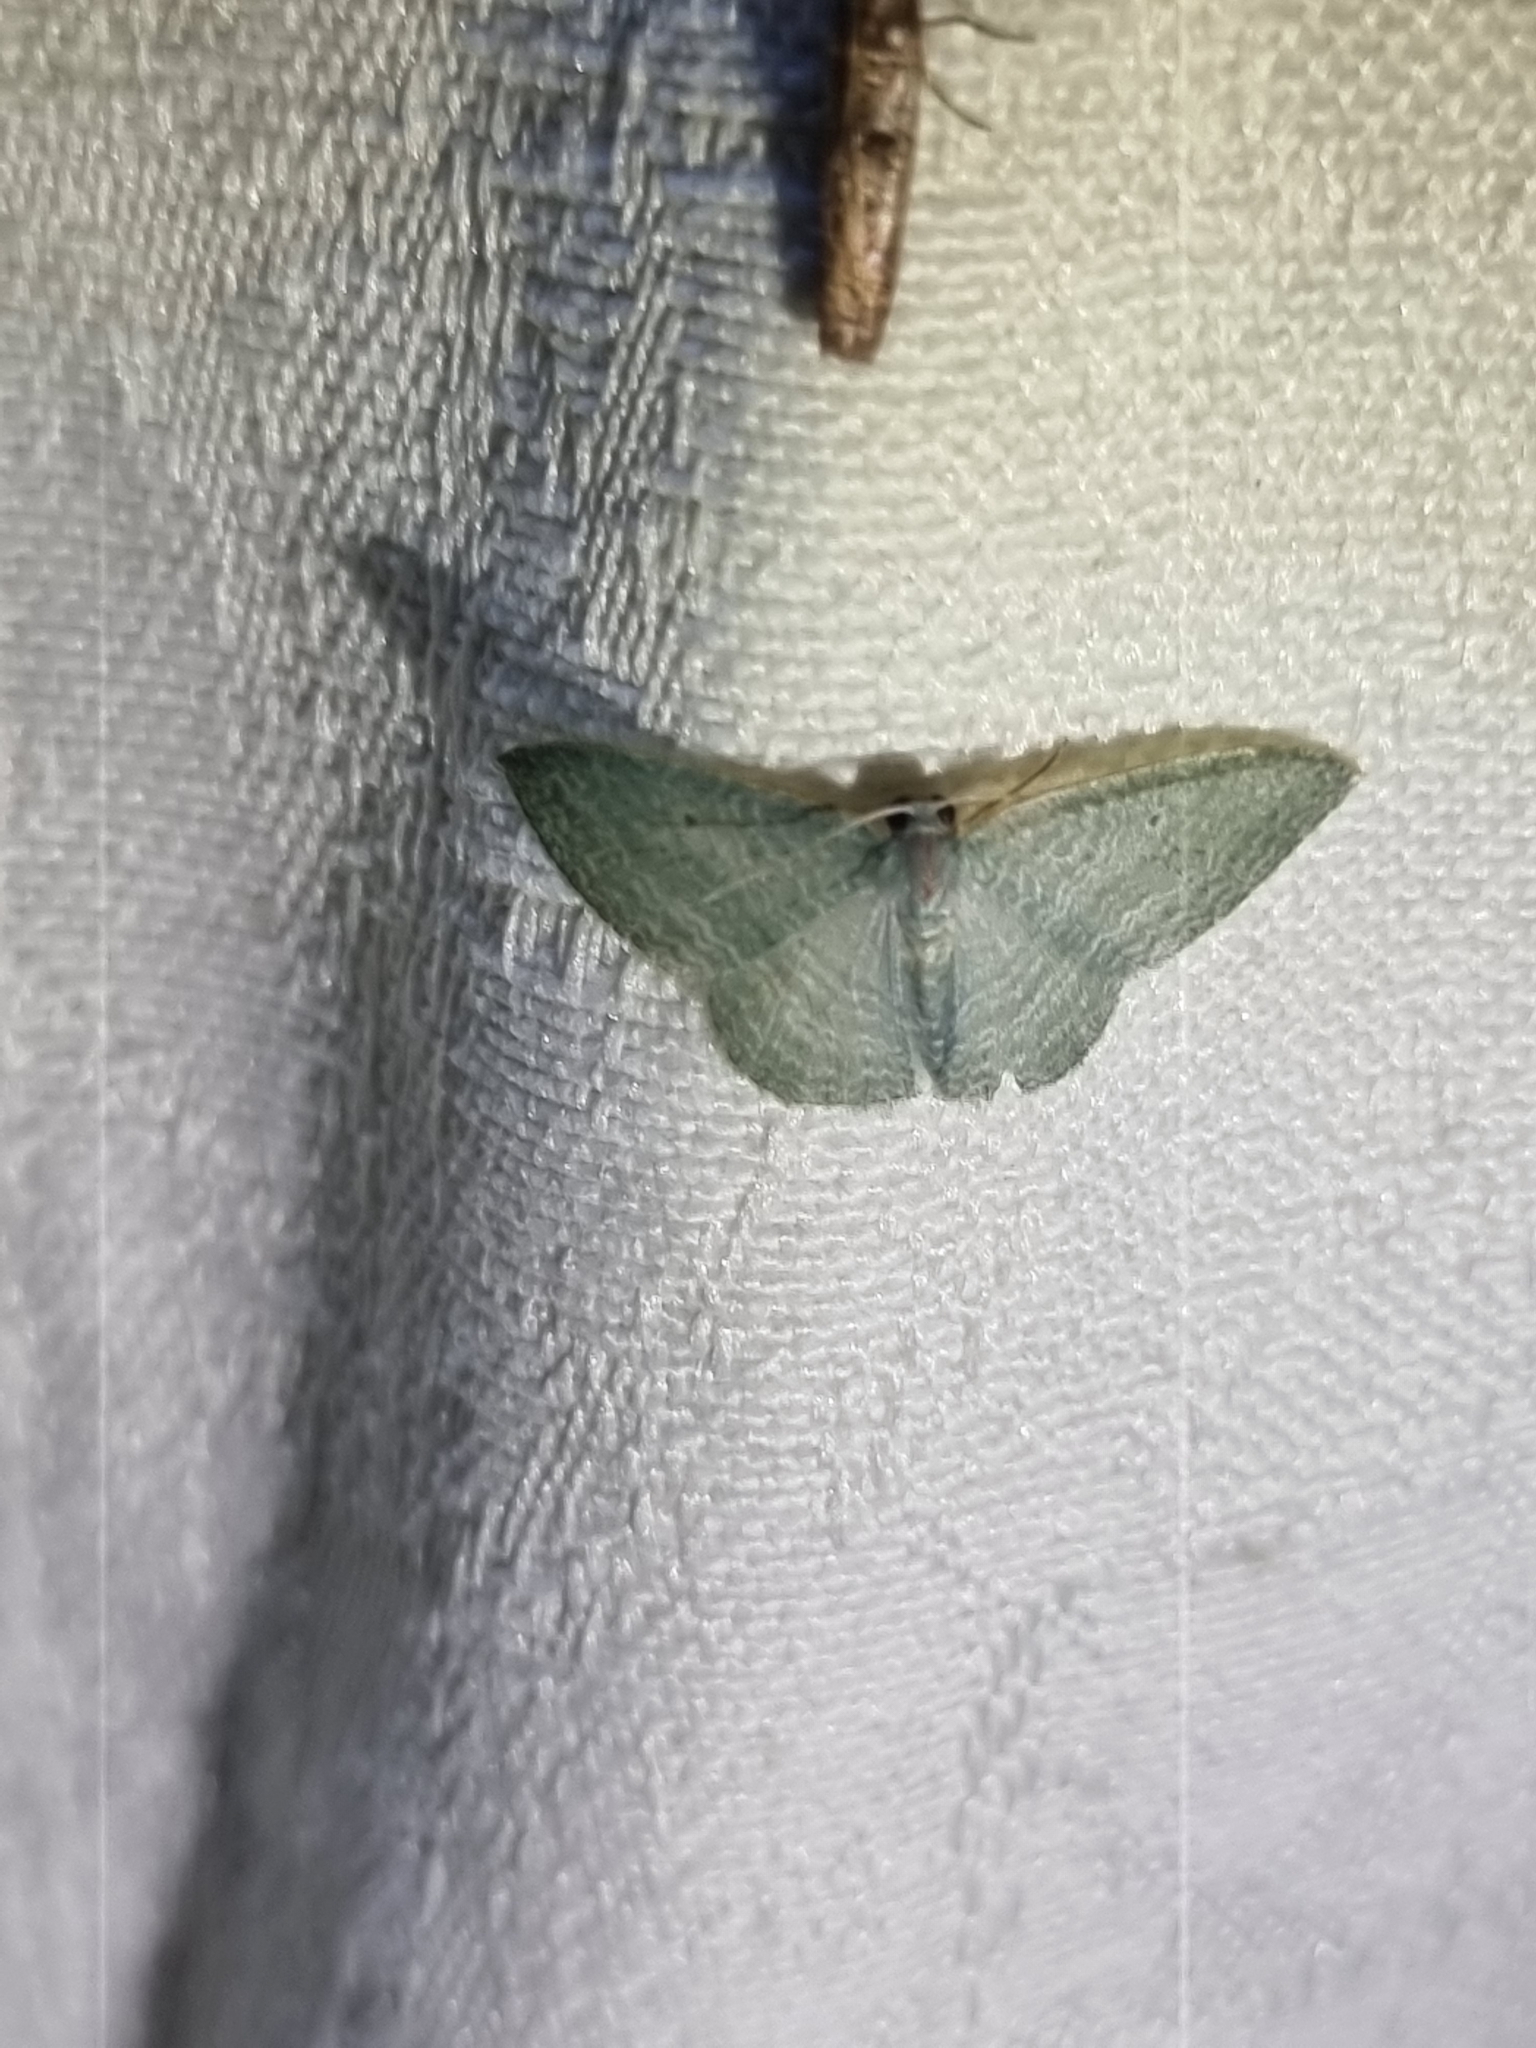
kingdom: Animalia
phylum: Arthropoda
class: Insecta
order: Lepidoptera
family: Geometridae
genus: Poecilasthena
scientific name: Poecilasthena thalassias
